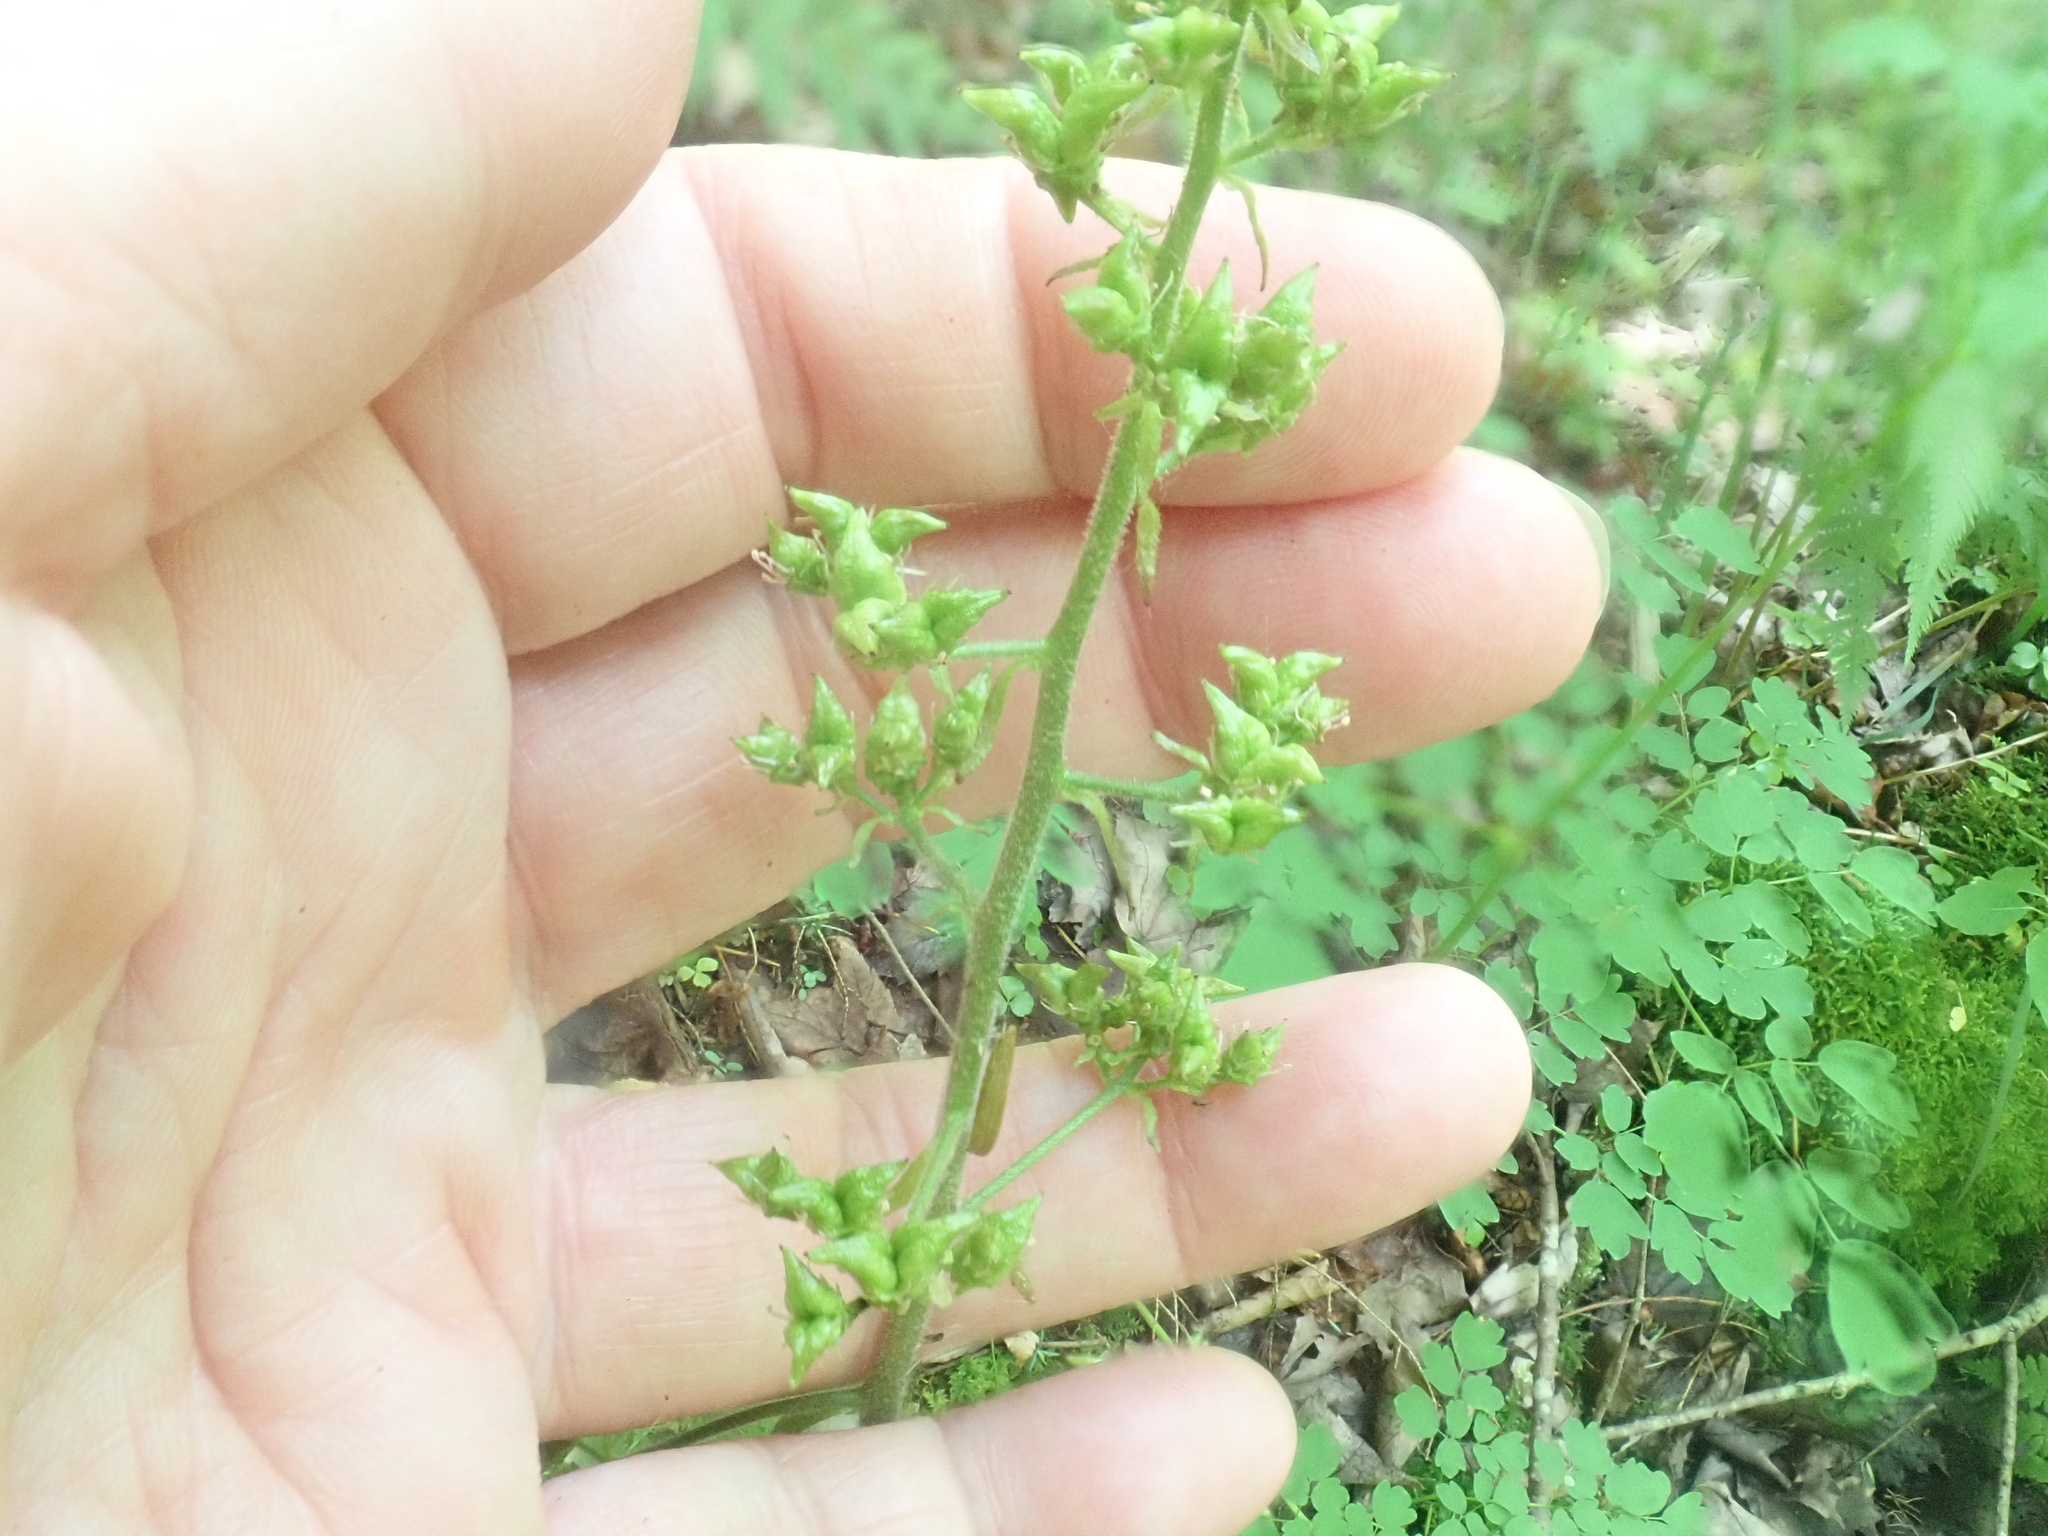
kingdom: Plantae
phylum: Tracheophyta
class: Magnoliopsida
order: Saxifragales
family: Saxifragaceae
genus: Micranthes
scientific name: Micranthes pensylvanica
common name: Marsh saxifrage
